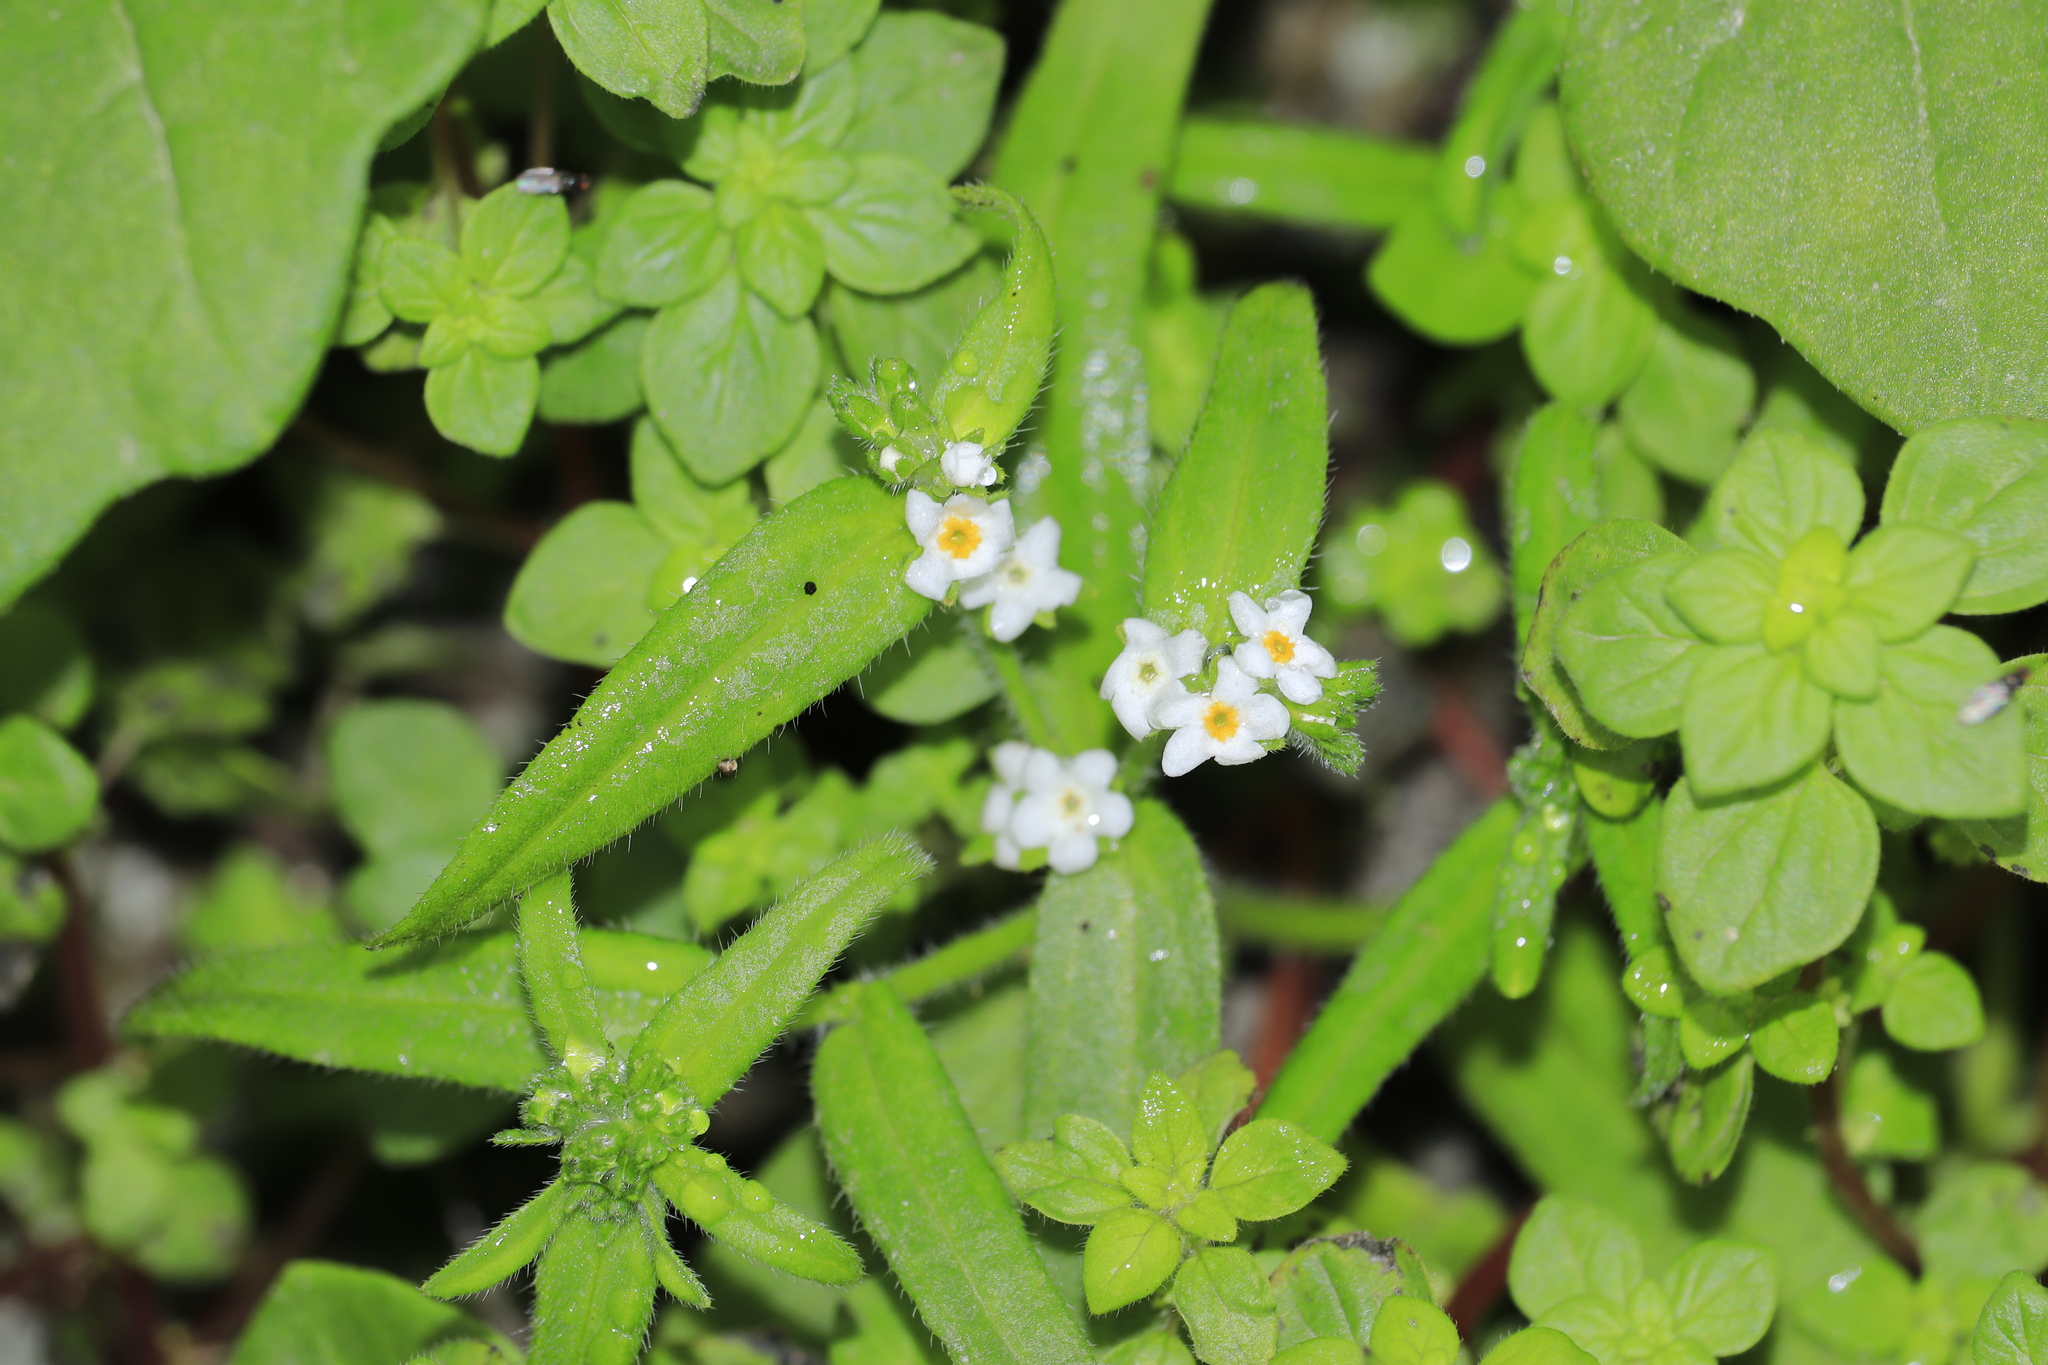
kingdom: Plantae
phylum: Tracheophyta
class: Magnoliopsida
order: Boraginales
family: Boraginaceae
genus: Cryptantha
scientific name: Cryptantha limensis
